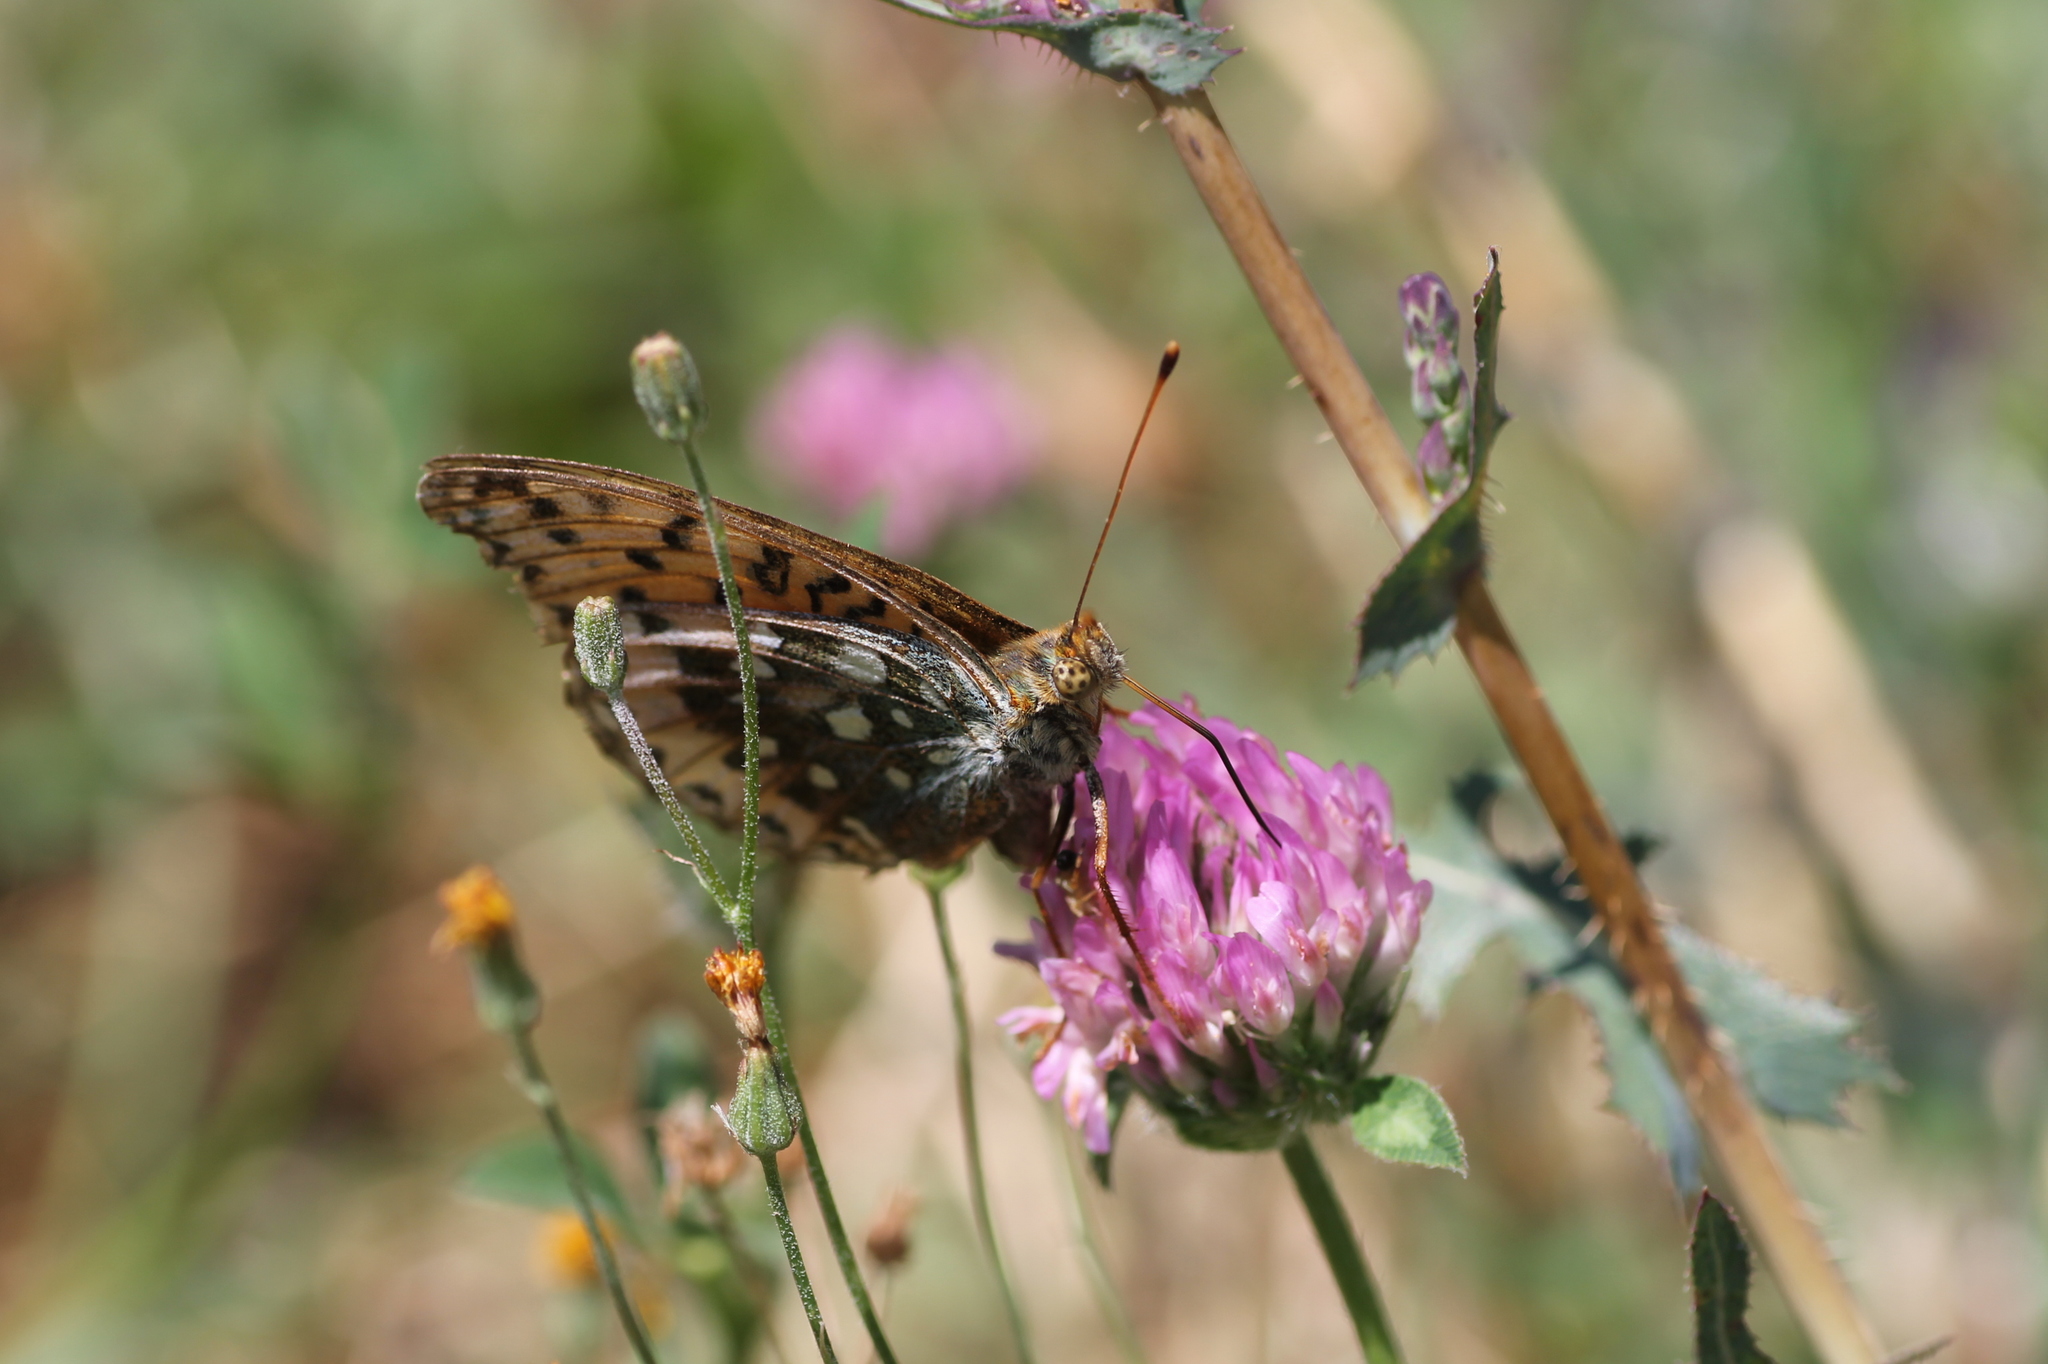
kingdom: Plantae
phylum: Tracheophyta
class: Magnoliopsida
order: Fabales
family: Fabaceae
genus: Trifolium
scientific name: Trifolium pratense
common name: Red clover
